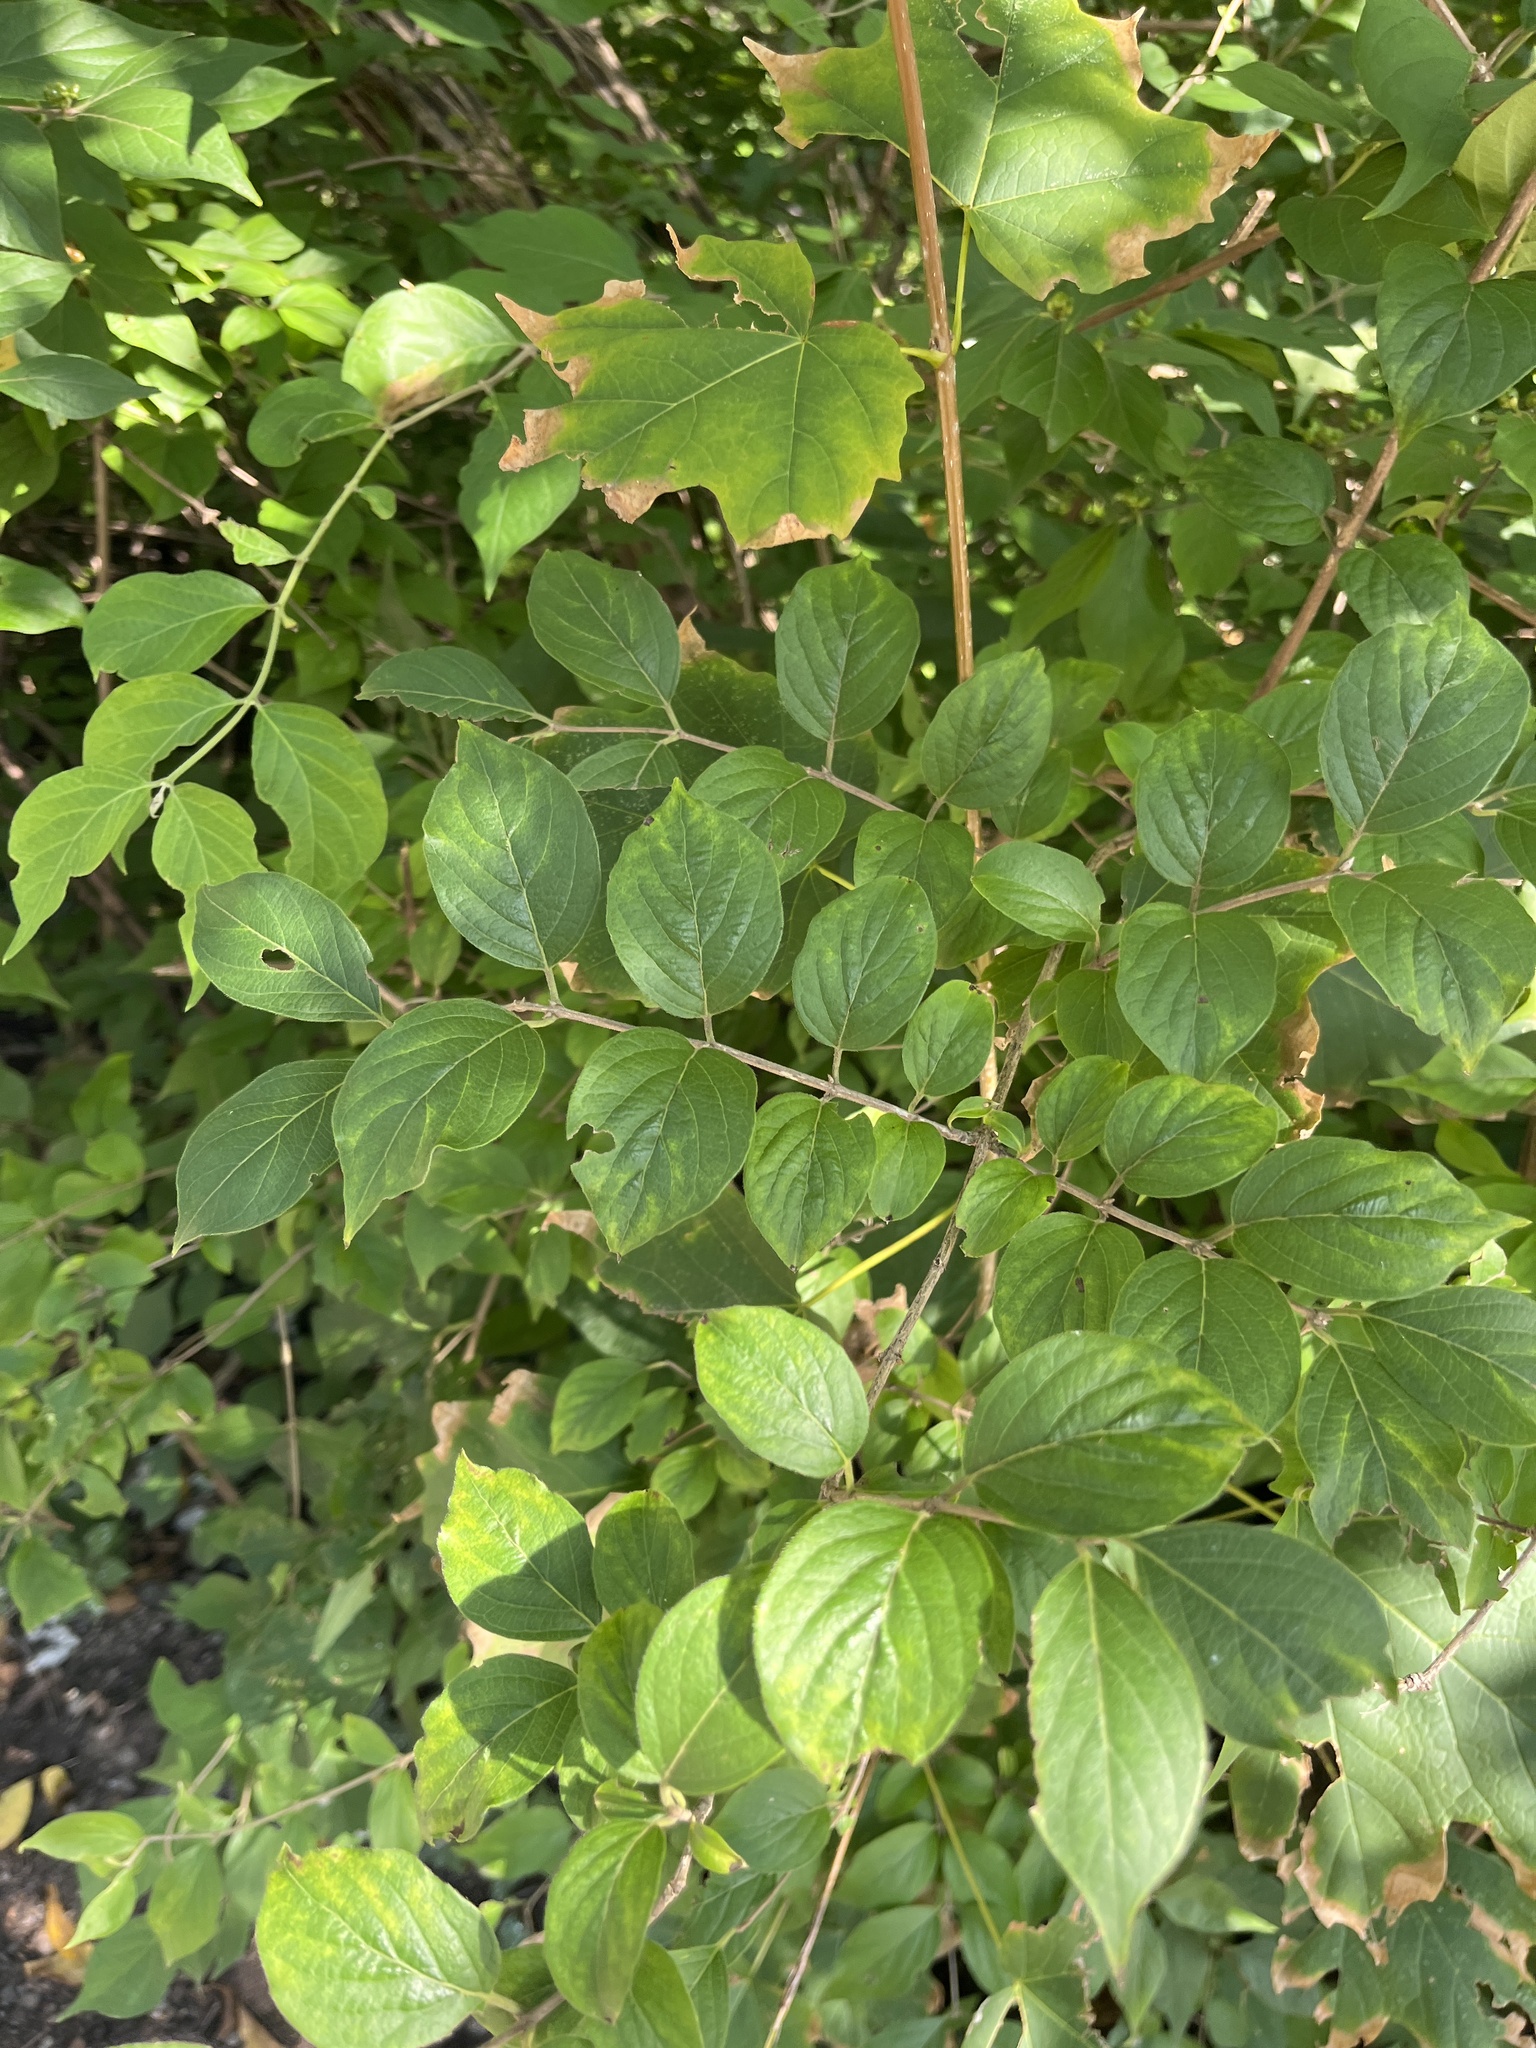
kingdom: Plantae
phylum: Tracheophyta
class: Magnoliopsida
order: Dipsacales
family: Caprifoliaceae
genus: Lonicera
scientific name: Lonicera maackii
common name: Amur honeysuckle
